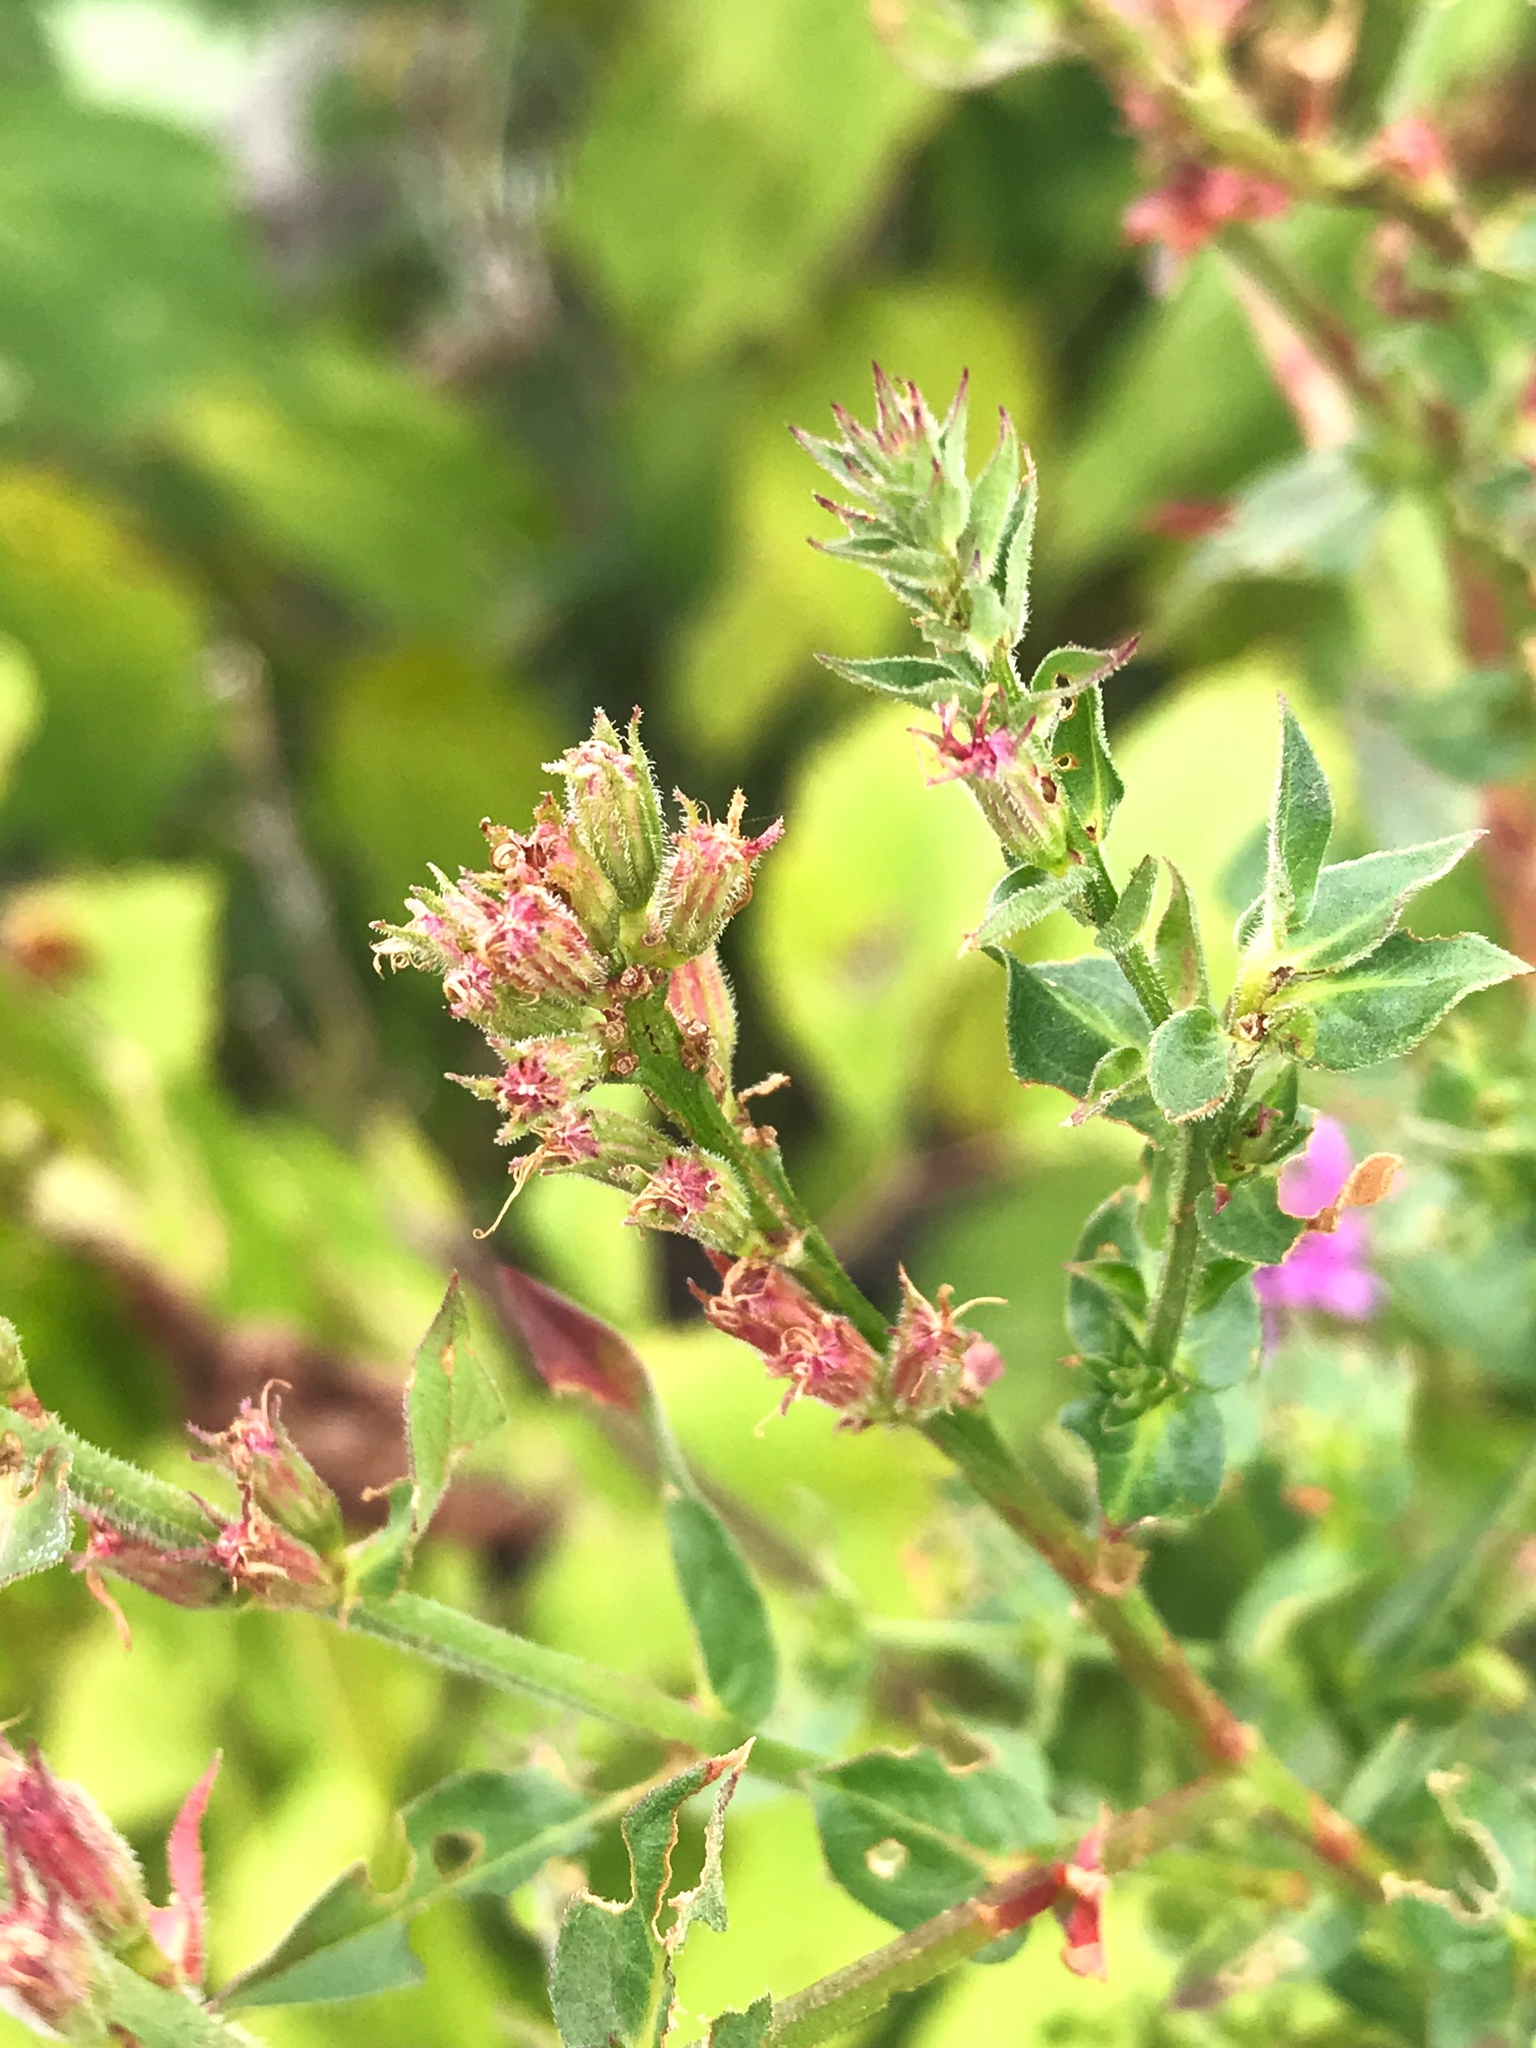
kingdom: Plantae
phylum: Tracheophyta
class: Magnoliopsida
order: Myrtales
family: Lythraceae
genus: Lythrum
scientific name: Lythrum salicaria
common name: Purple loosestrife
